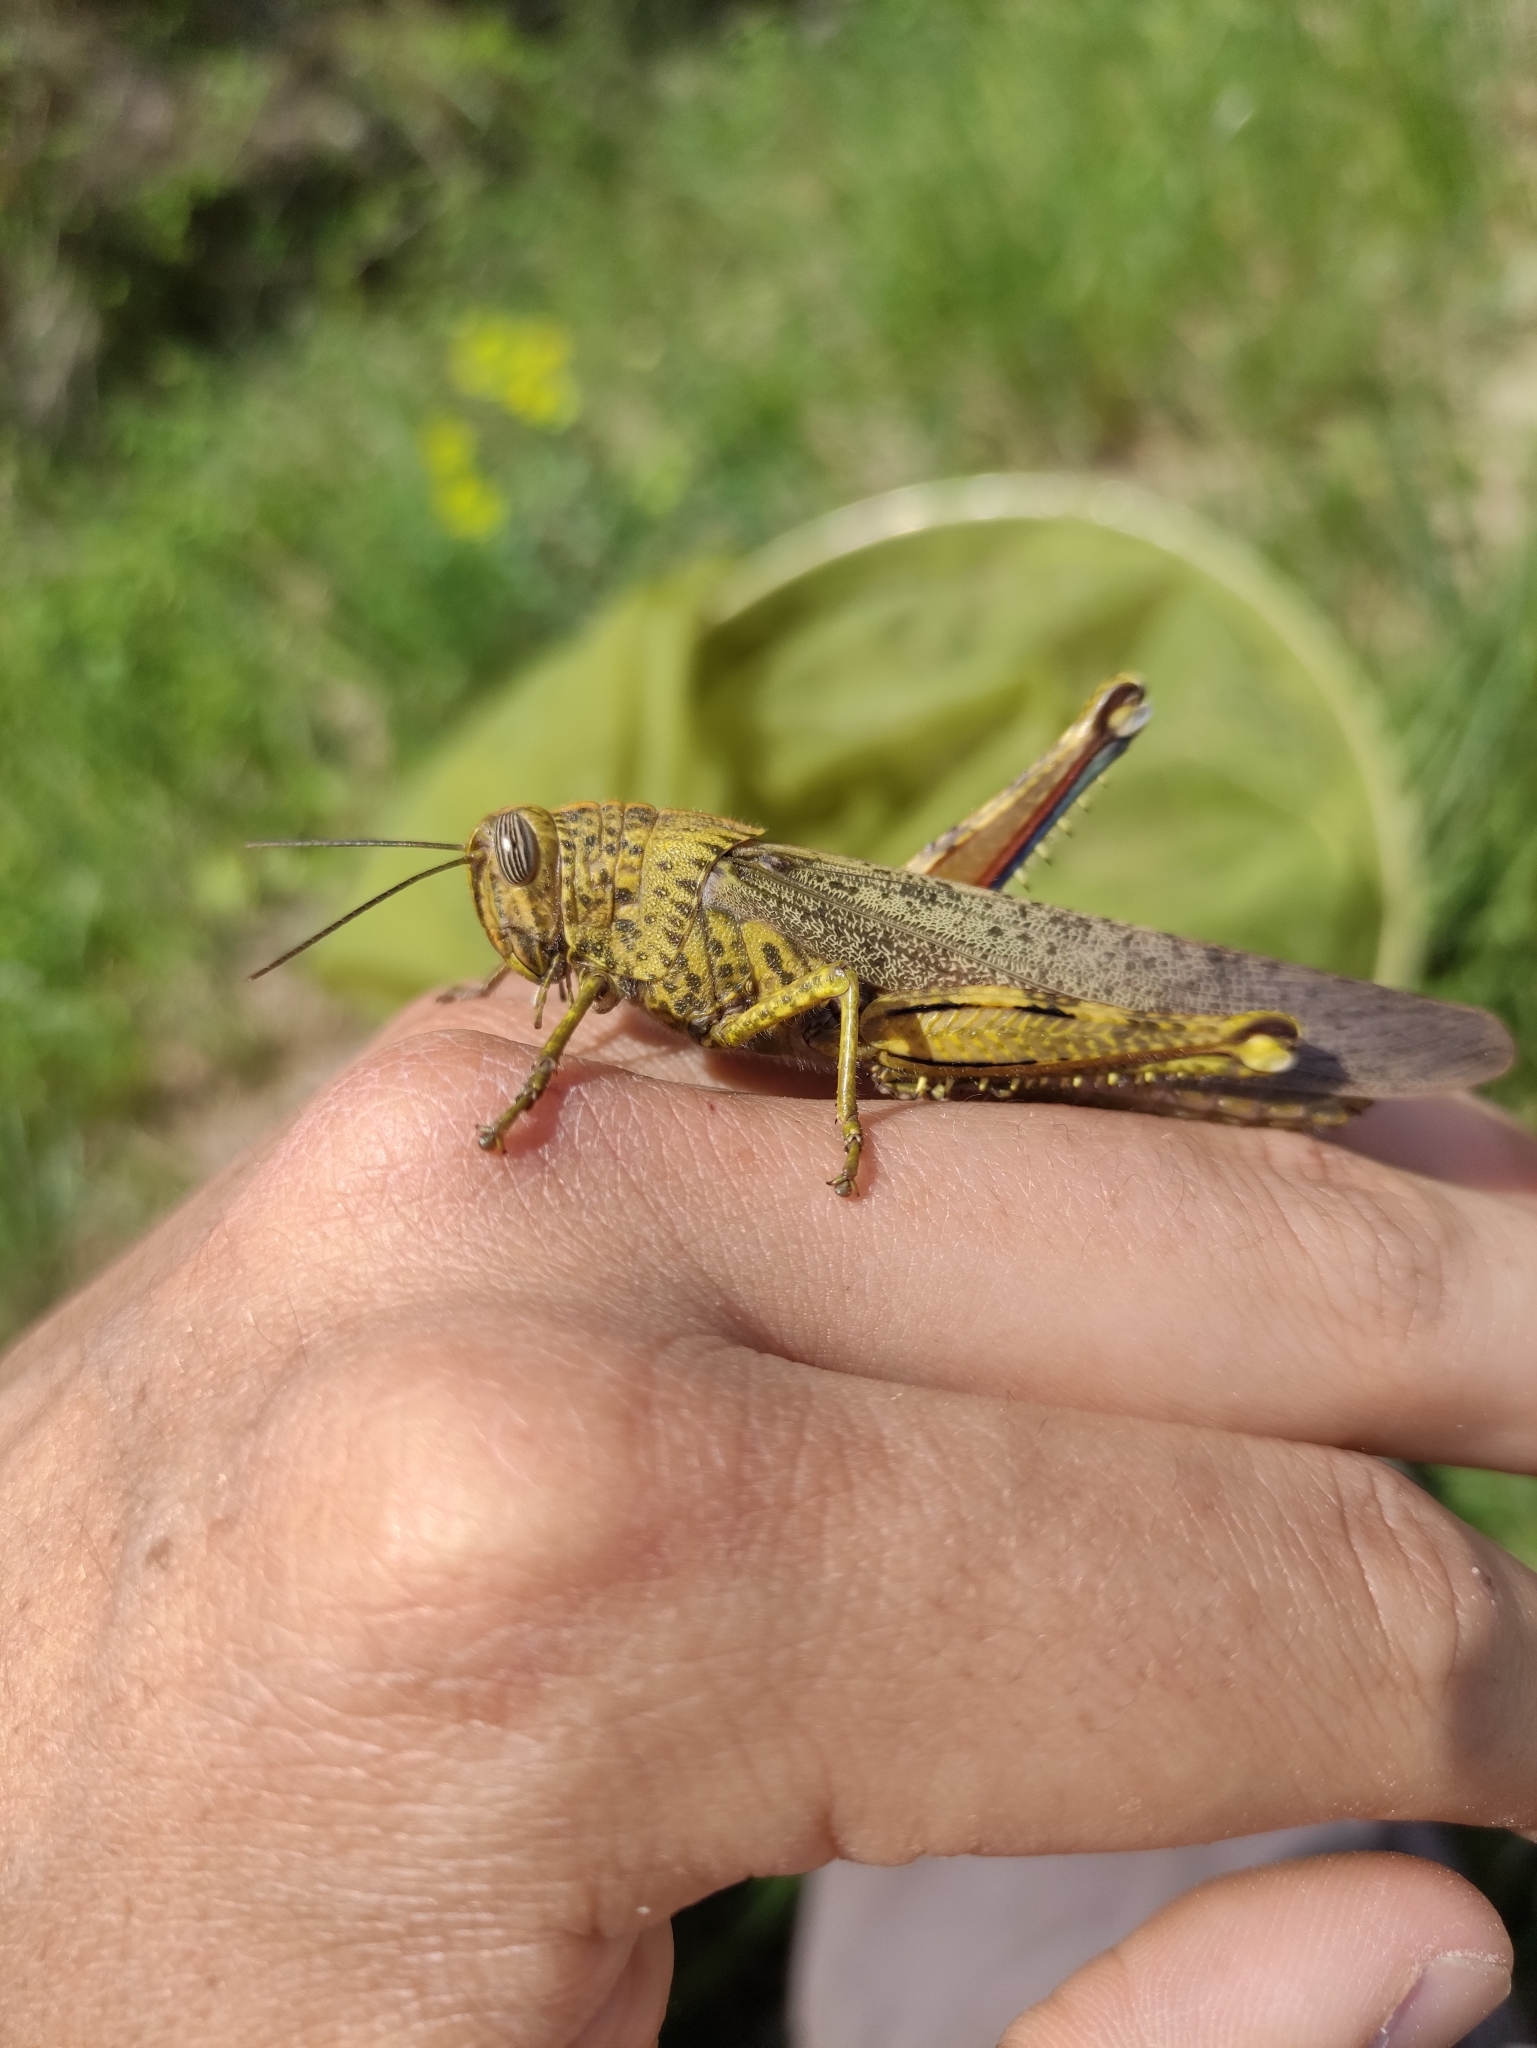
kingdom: Animalia
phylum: Arthropoda
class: Insecta
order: Orthoptera
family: Acrididae
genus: Anacridium
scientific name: Anacridium aegyptium
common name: Egyptian grasshopper
